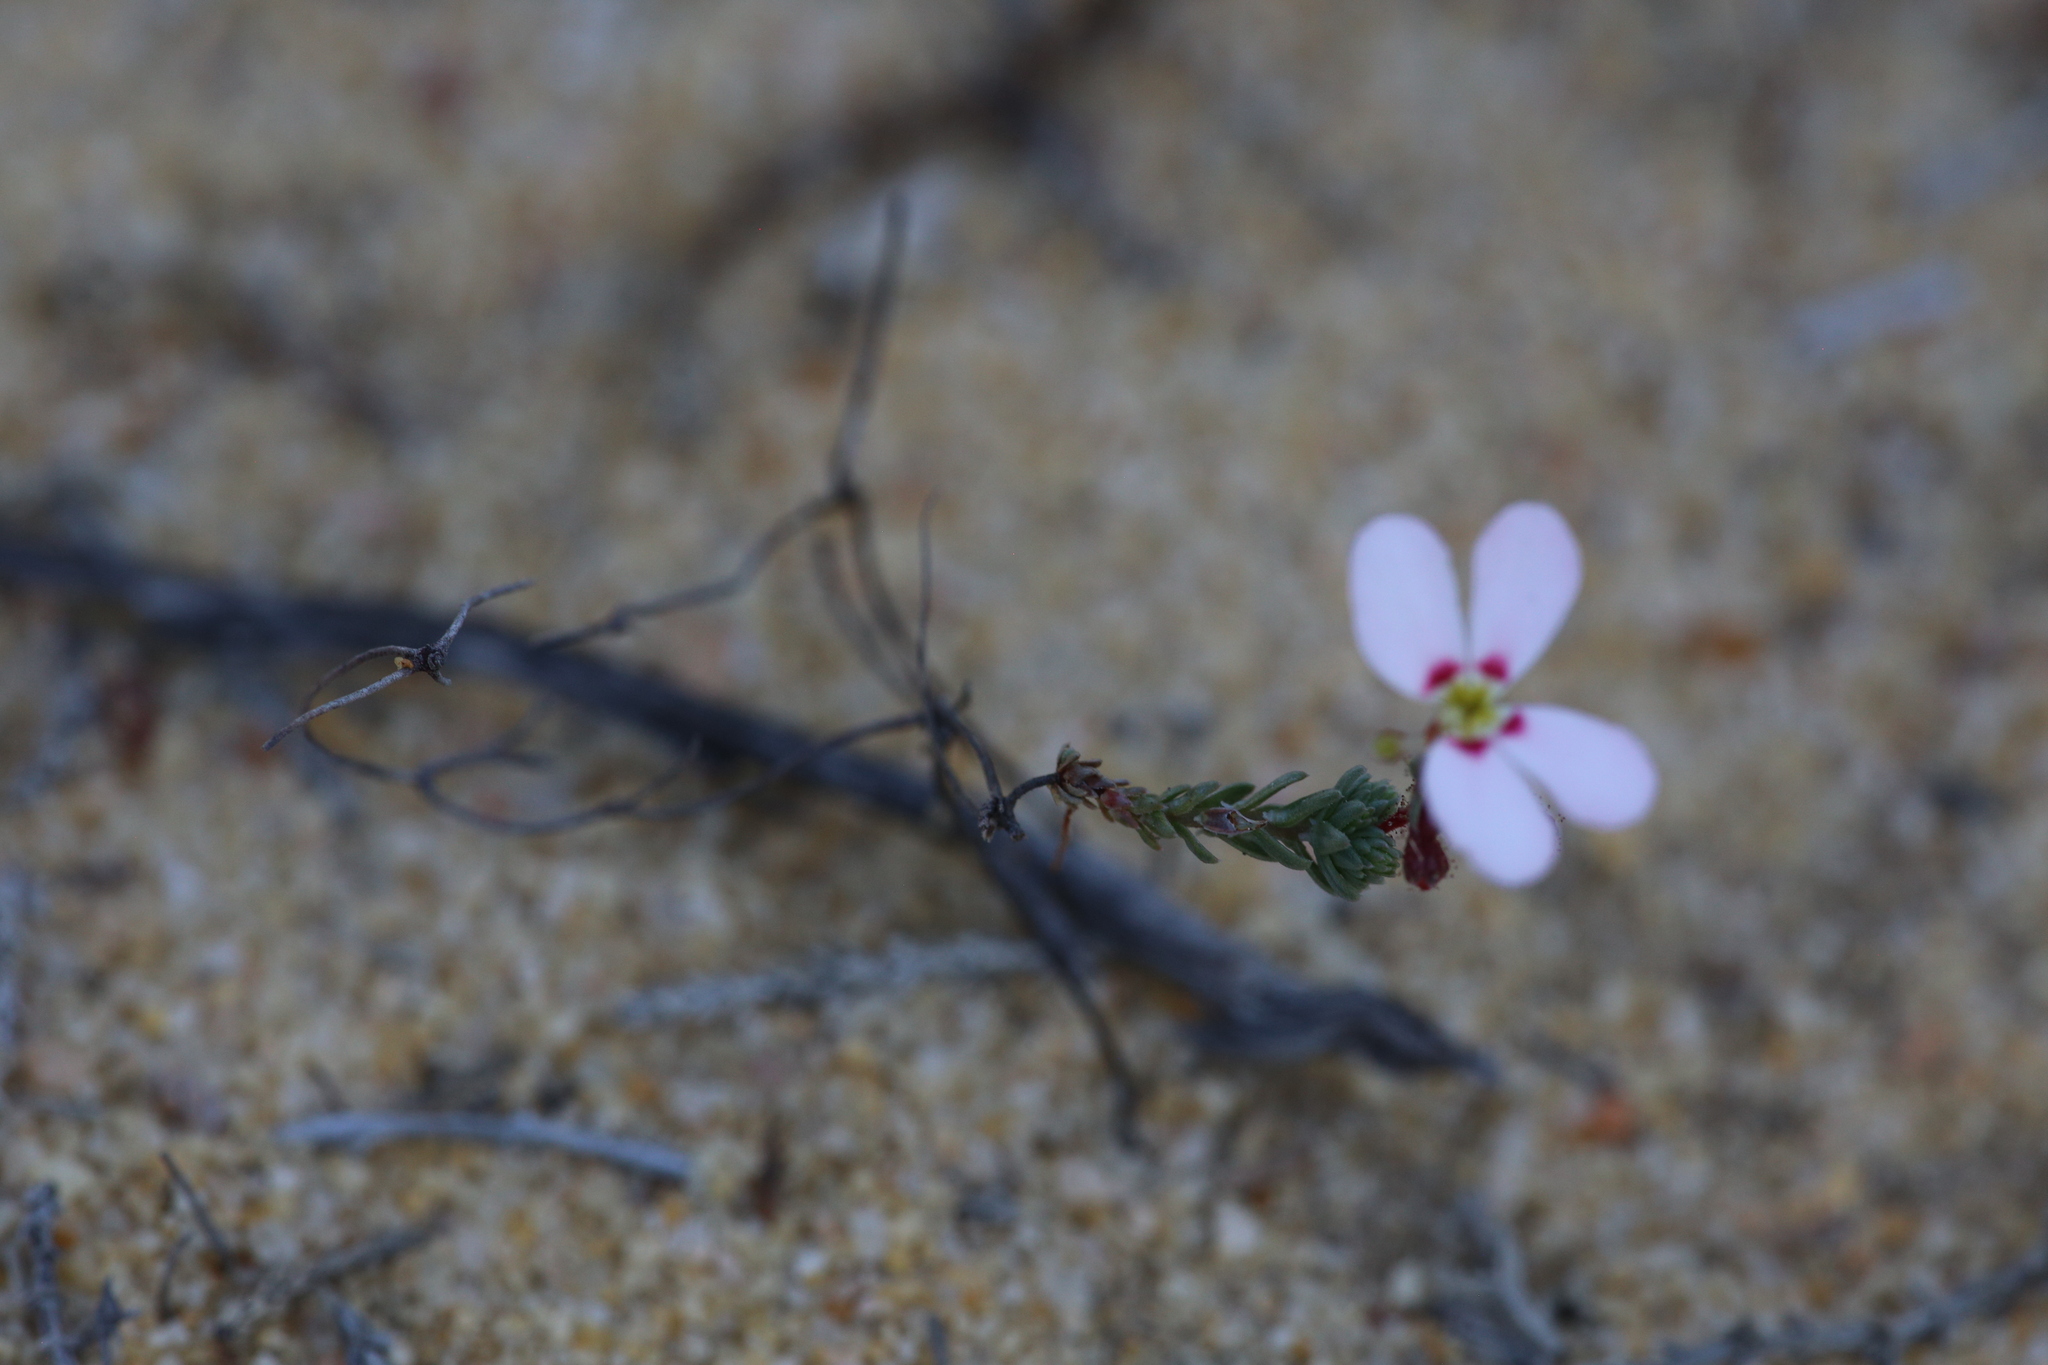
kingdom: Plantae
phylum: Tracheophyta
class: Magnoliopsida
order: Asterales
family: Stylidiaceae
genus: Stylidium
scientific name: Stylidium adpressum
